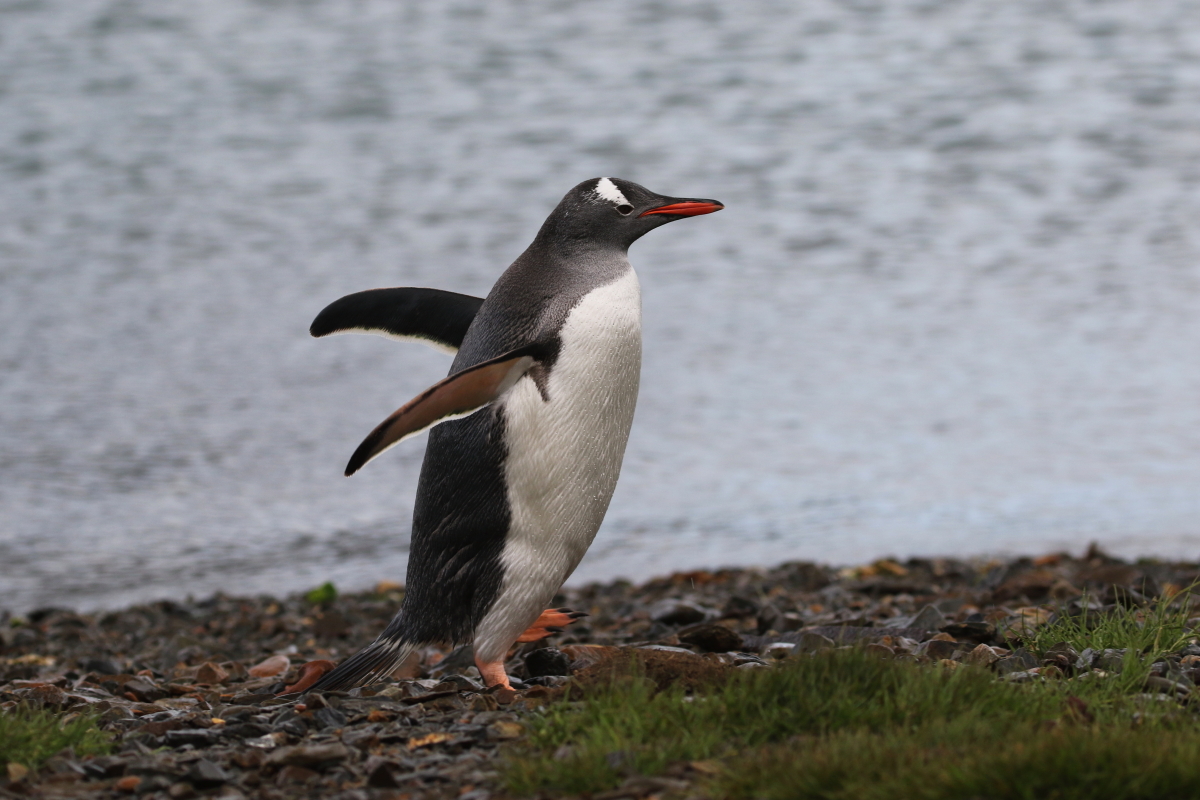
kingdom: Animalia
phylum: Chordata
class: Aves
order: Sphenisciformes
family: Spheniscidae
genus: Pygoscelis
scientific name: Pygoscelis papua
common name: Gentoo penguin
